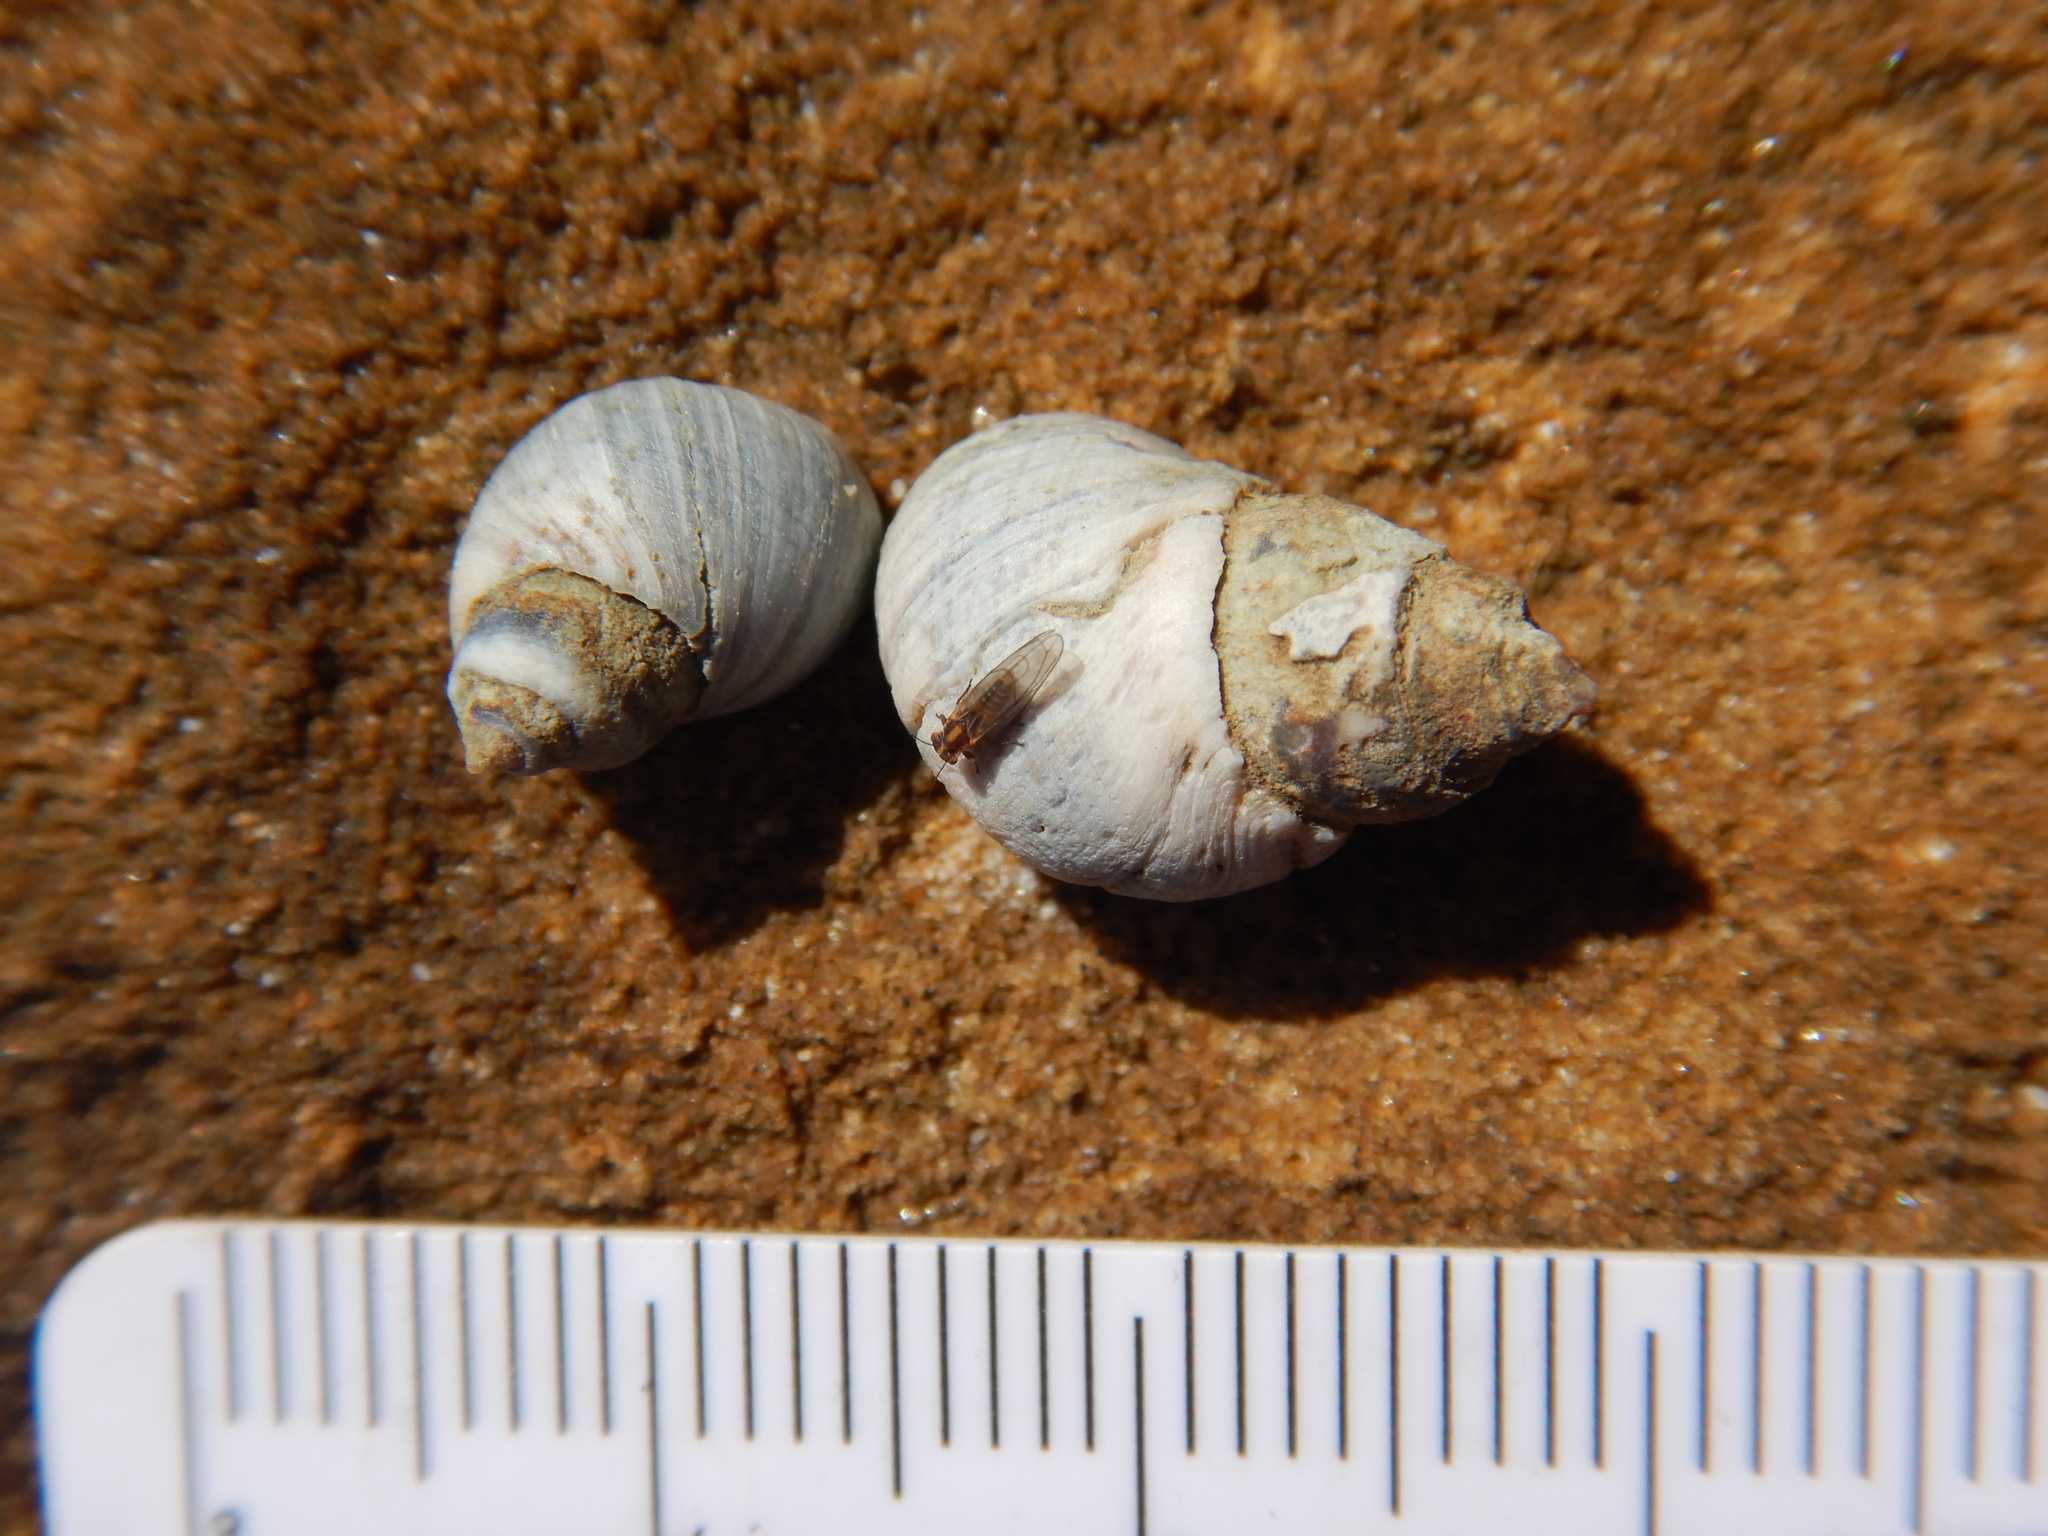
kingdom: Animalia
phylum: Mollusca
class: Gastropoda
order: Littorinimorpha
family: Littorinidae
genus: Austrolittorina
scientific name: Austrolittorina unifasciata
